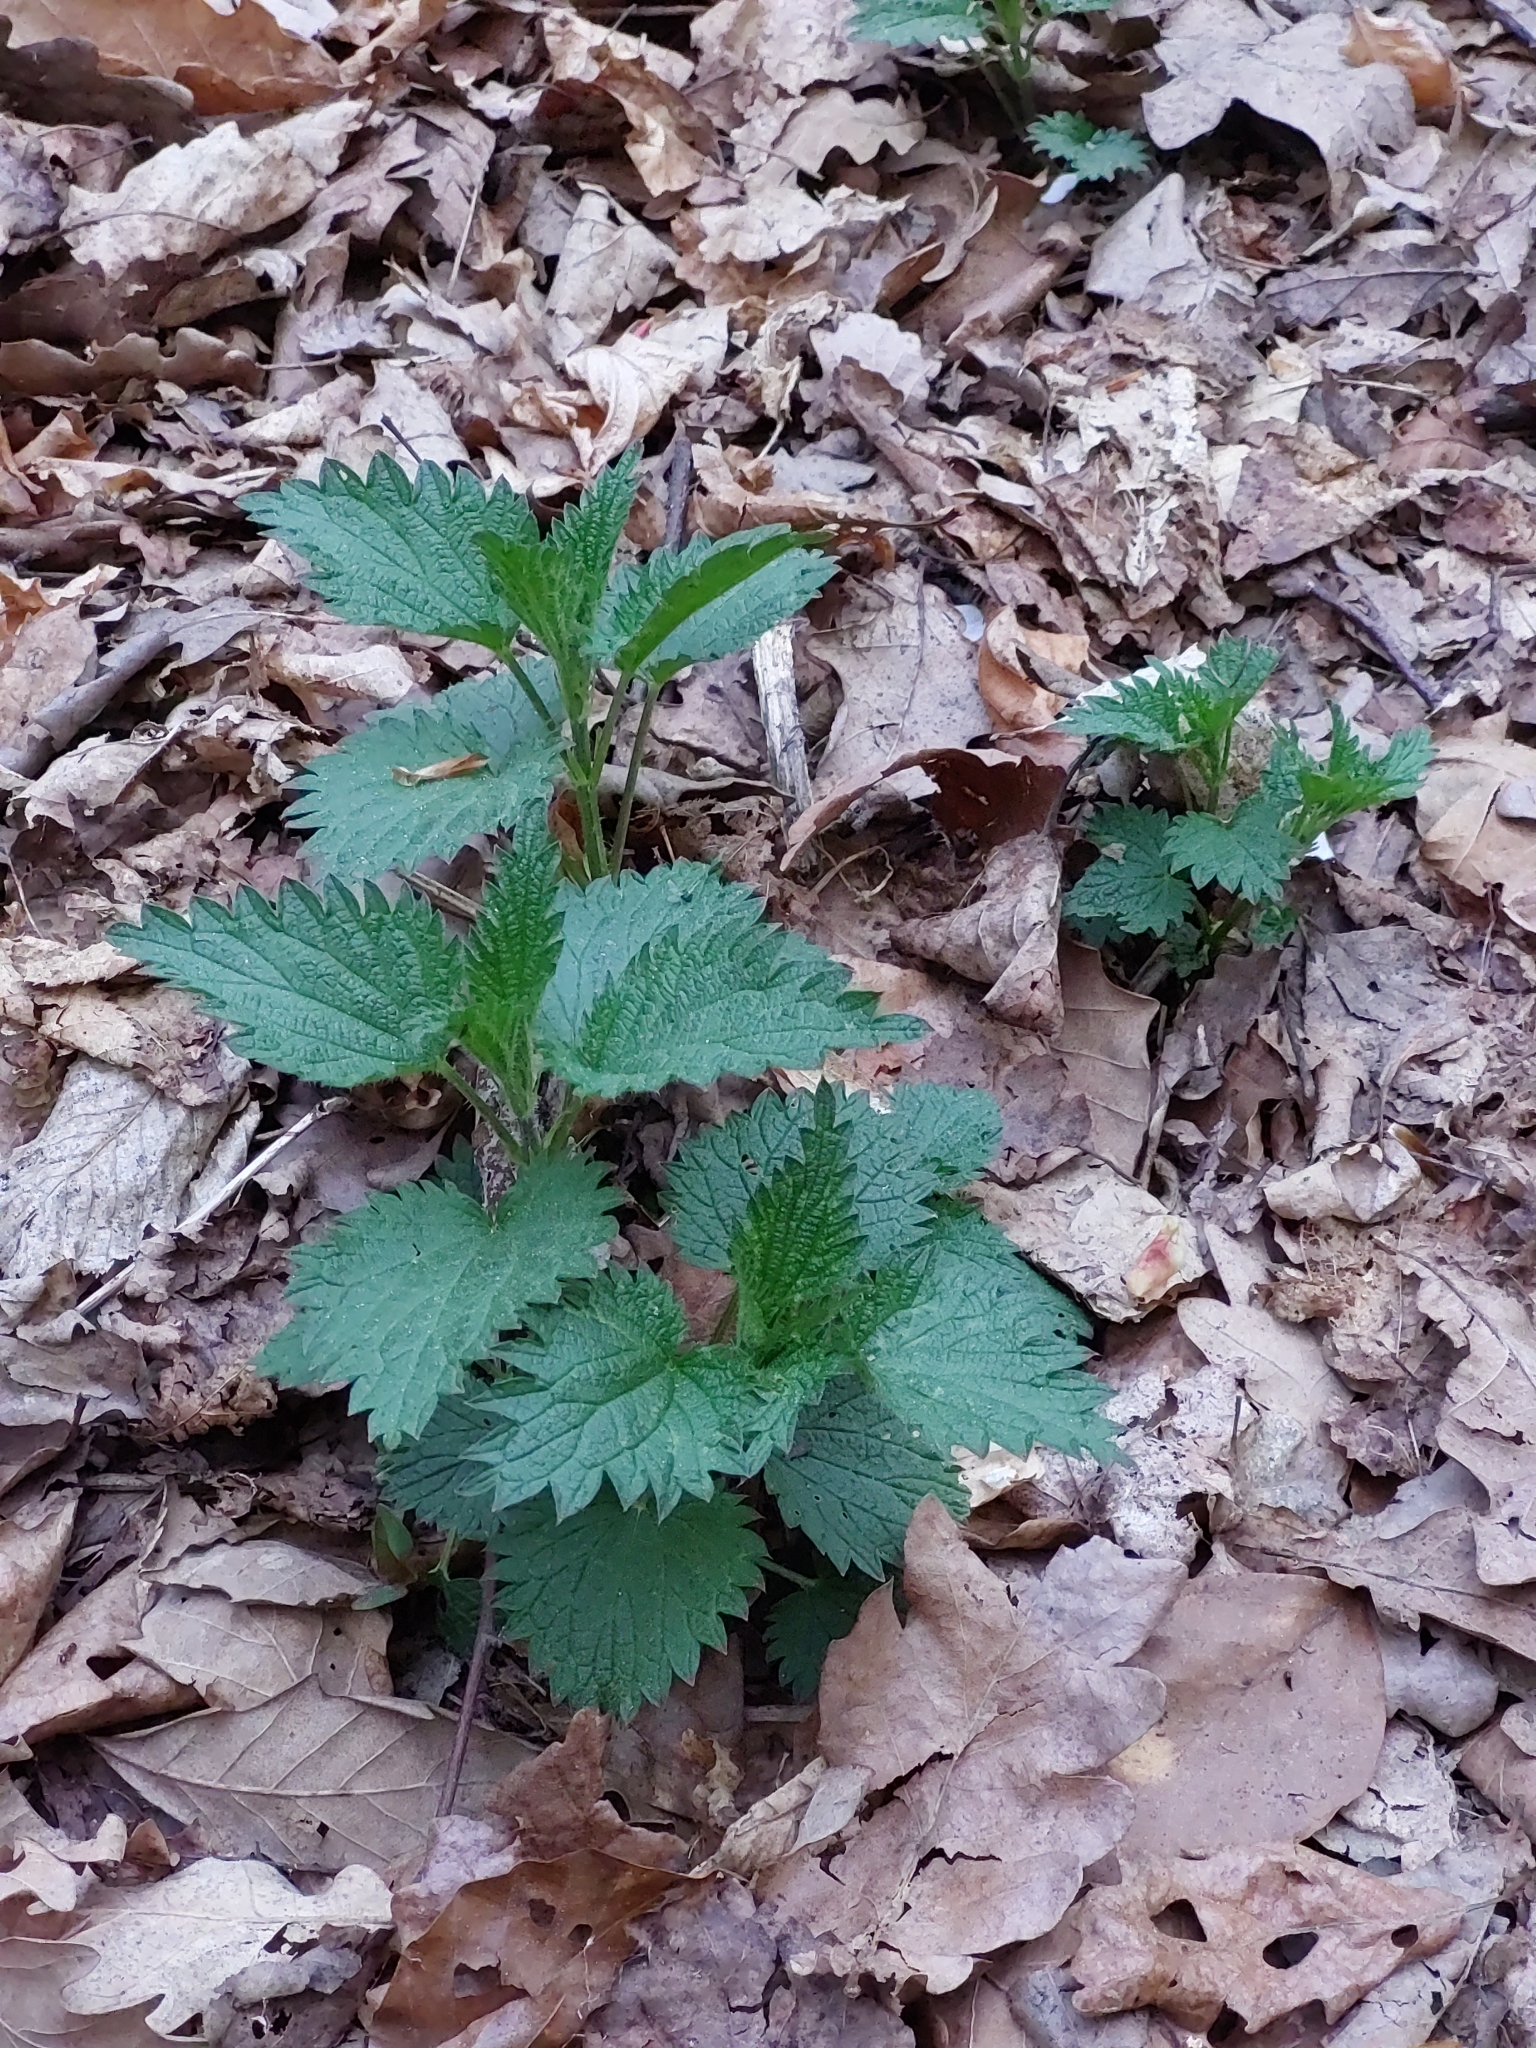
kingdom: Plantae
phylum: Tracheophyta
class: Magnoliopsida
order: Rosales
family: Urticaceae
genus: Urtica
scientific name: Urtica dioica
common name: Common nettle
